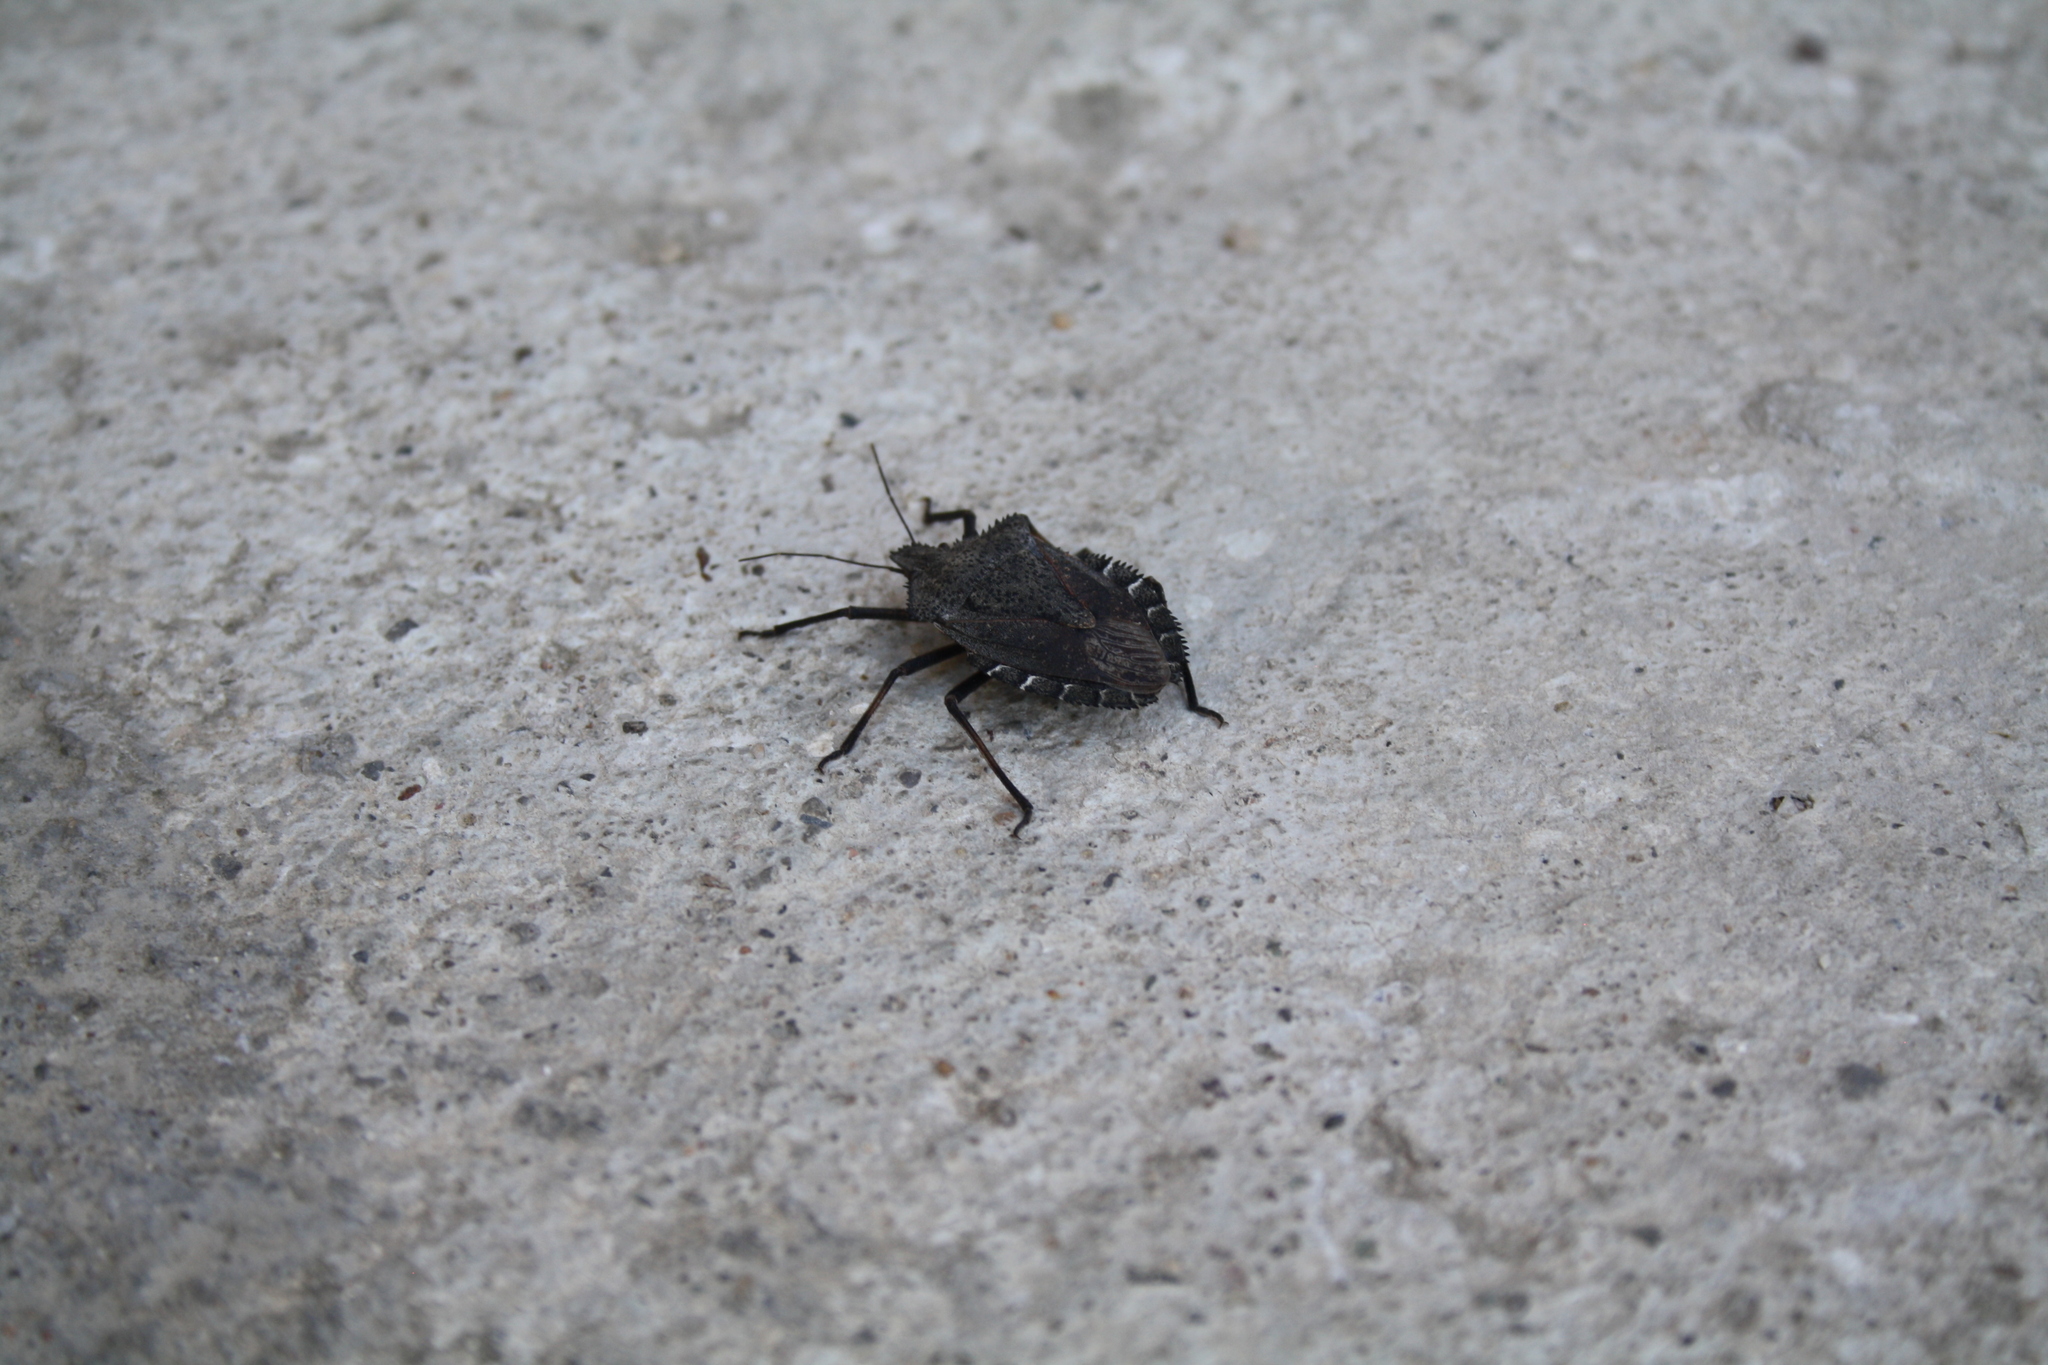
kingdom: Animalia
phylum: Arthropoda
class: Insecta
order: Hemiptera
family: Pentatomidae
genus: Mustha
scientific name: Mustha spinosula
